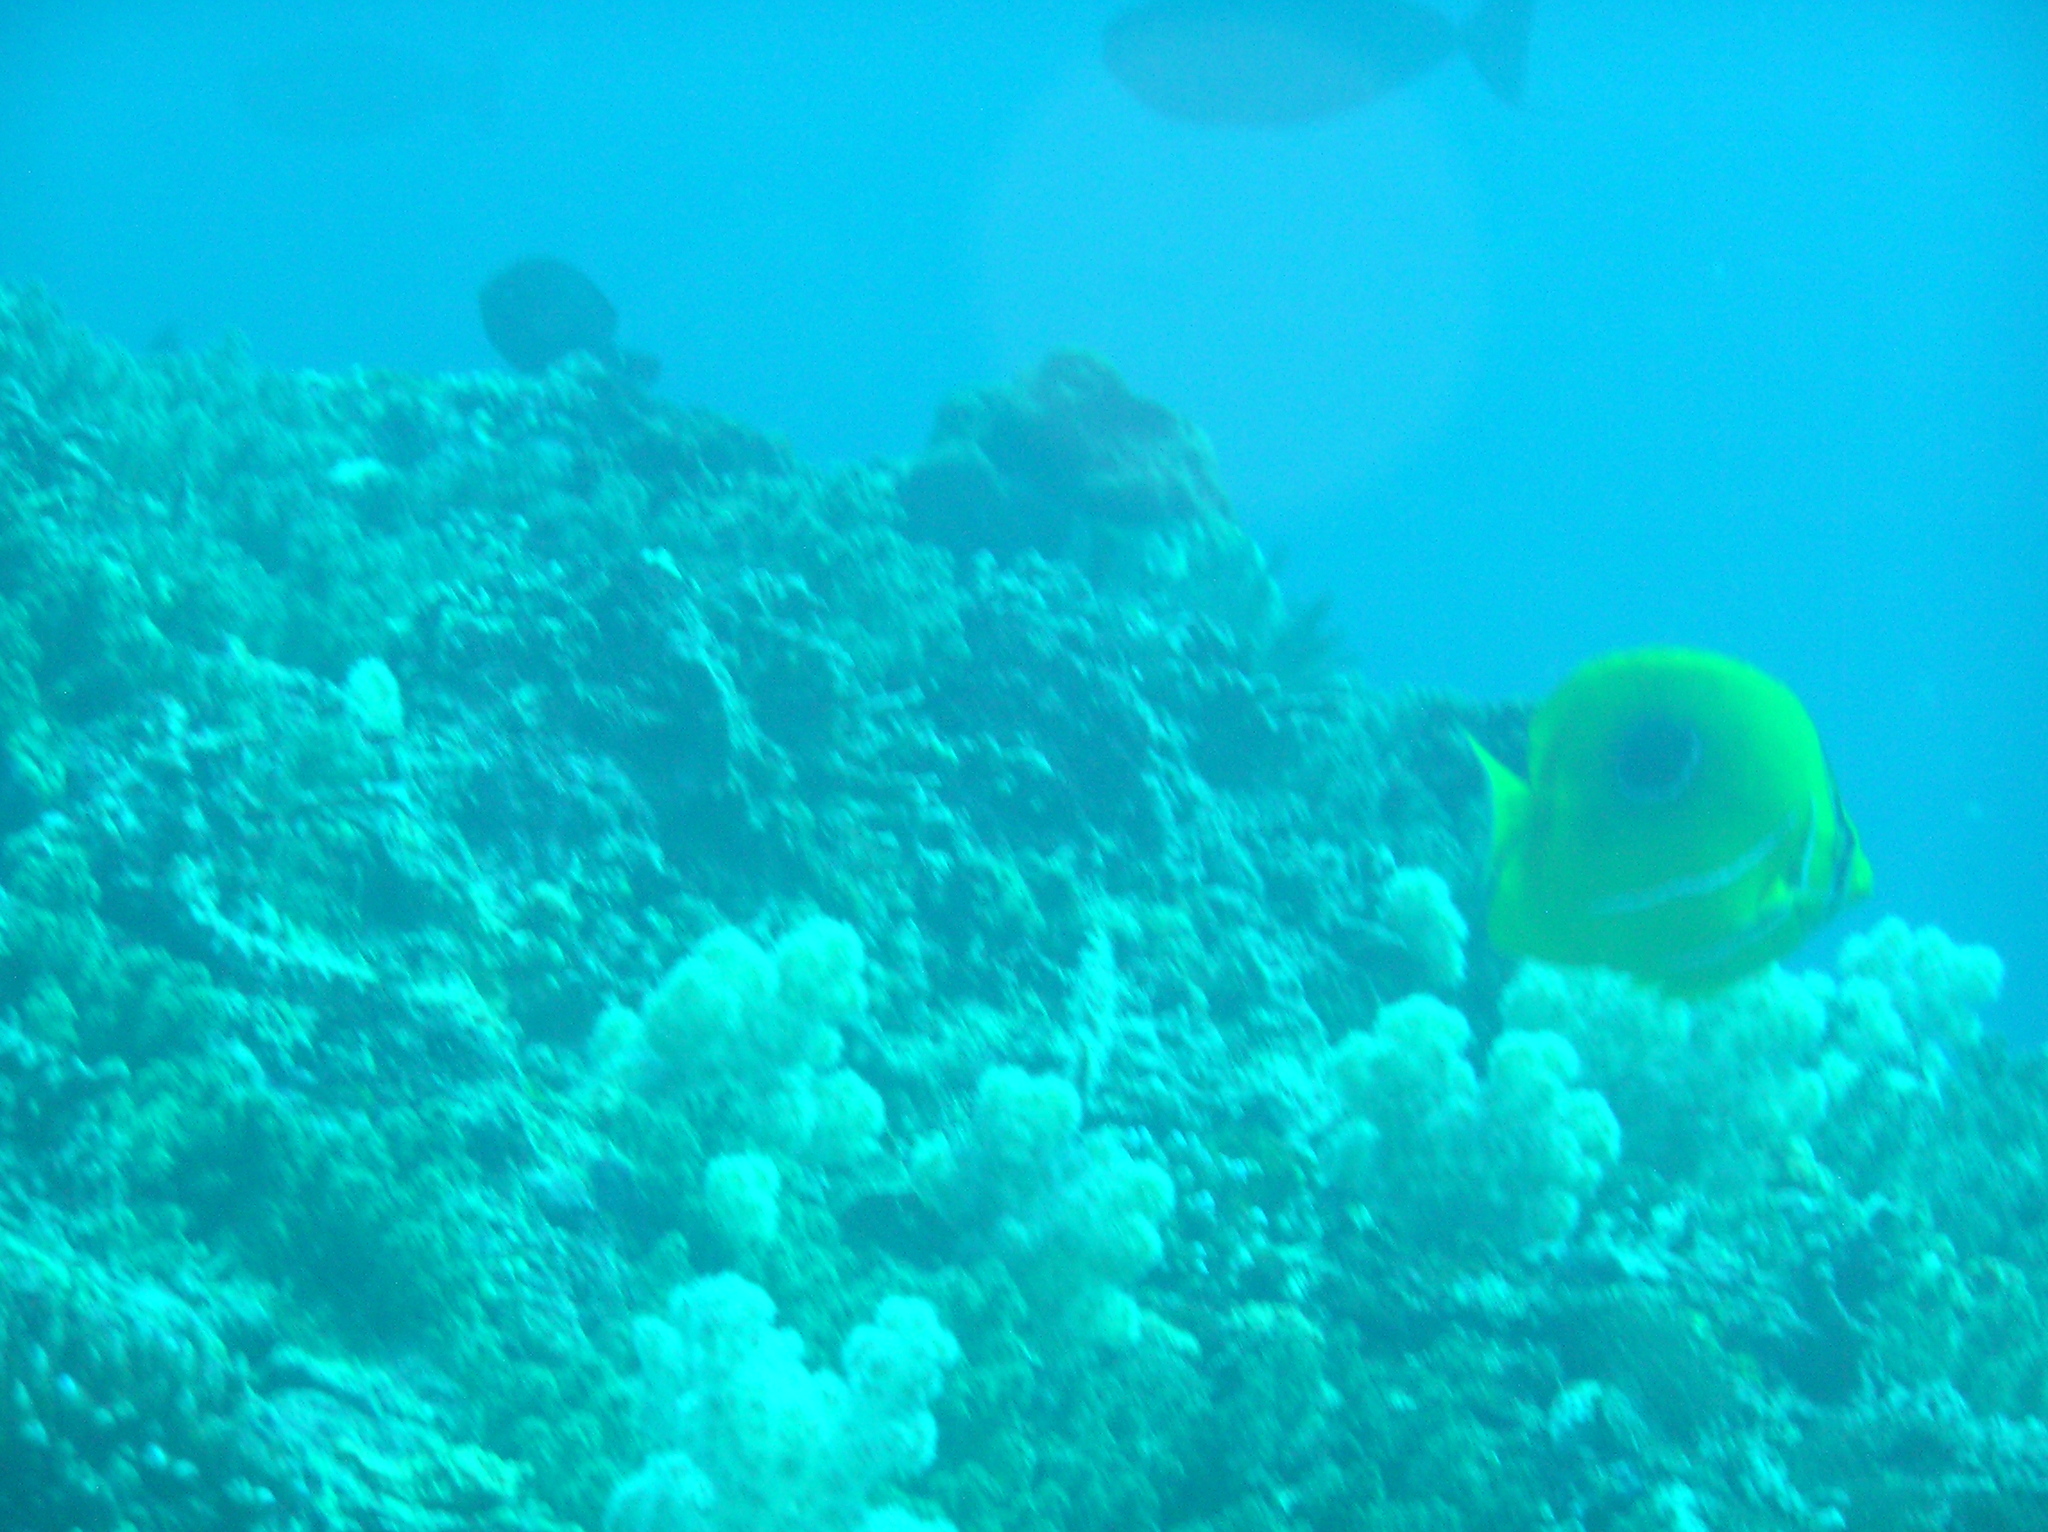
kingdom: Animalia
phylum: Chordata
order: Perciformes
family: Chaetodontidae
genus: Chaetodon
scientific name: Chaetodon bennetti
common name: Bennett's butterflyfish
